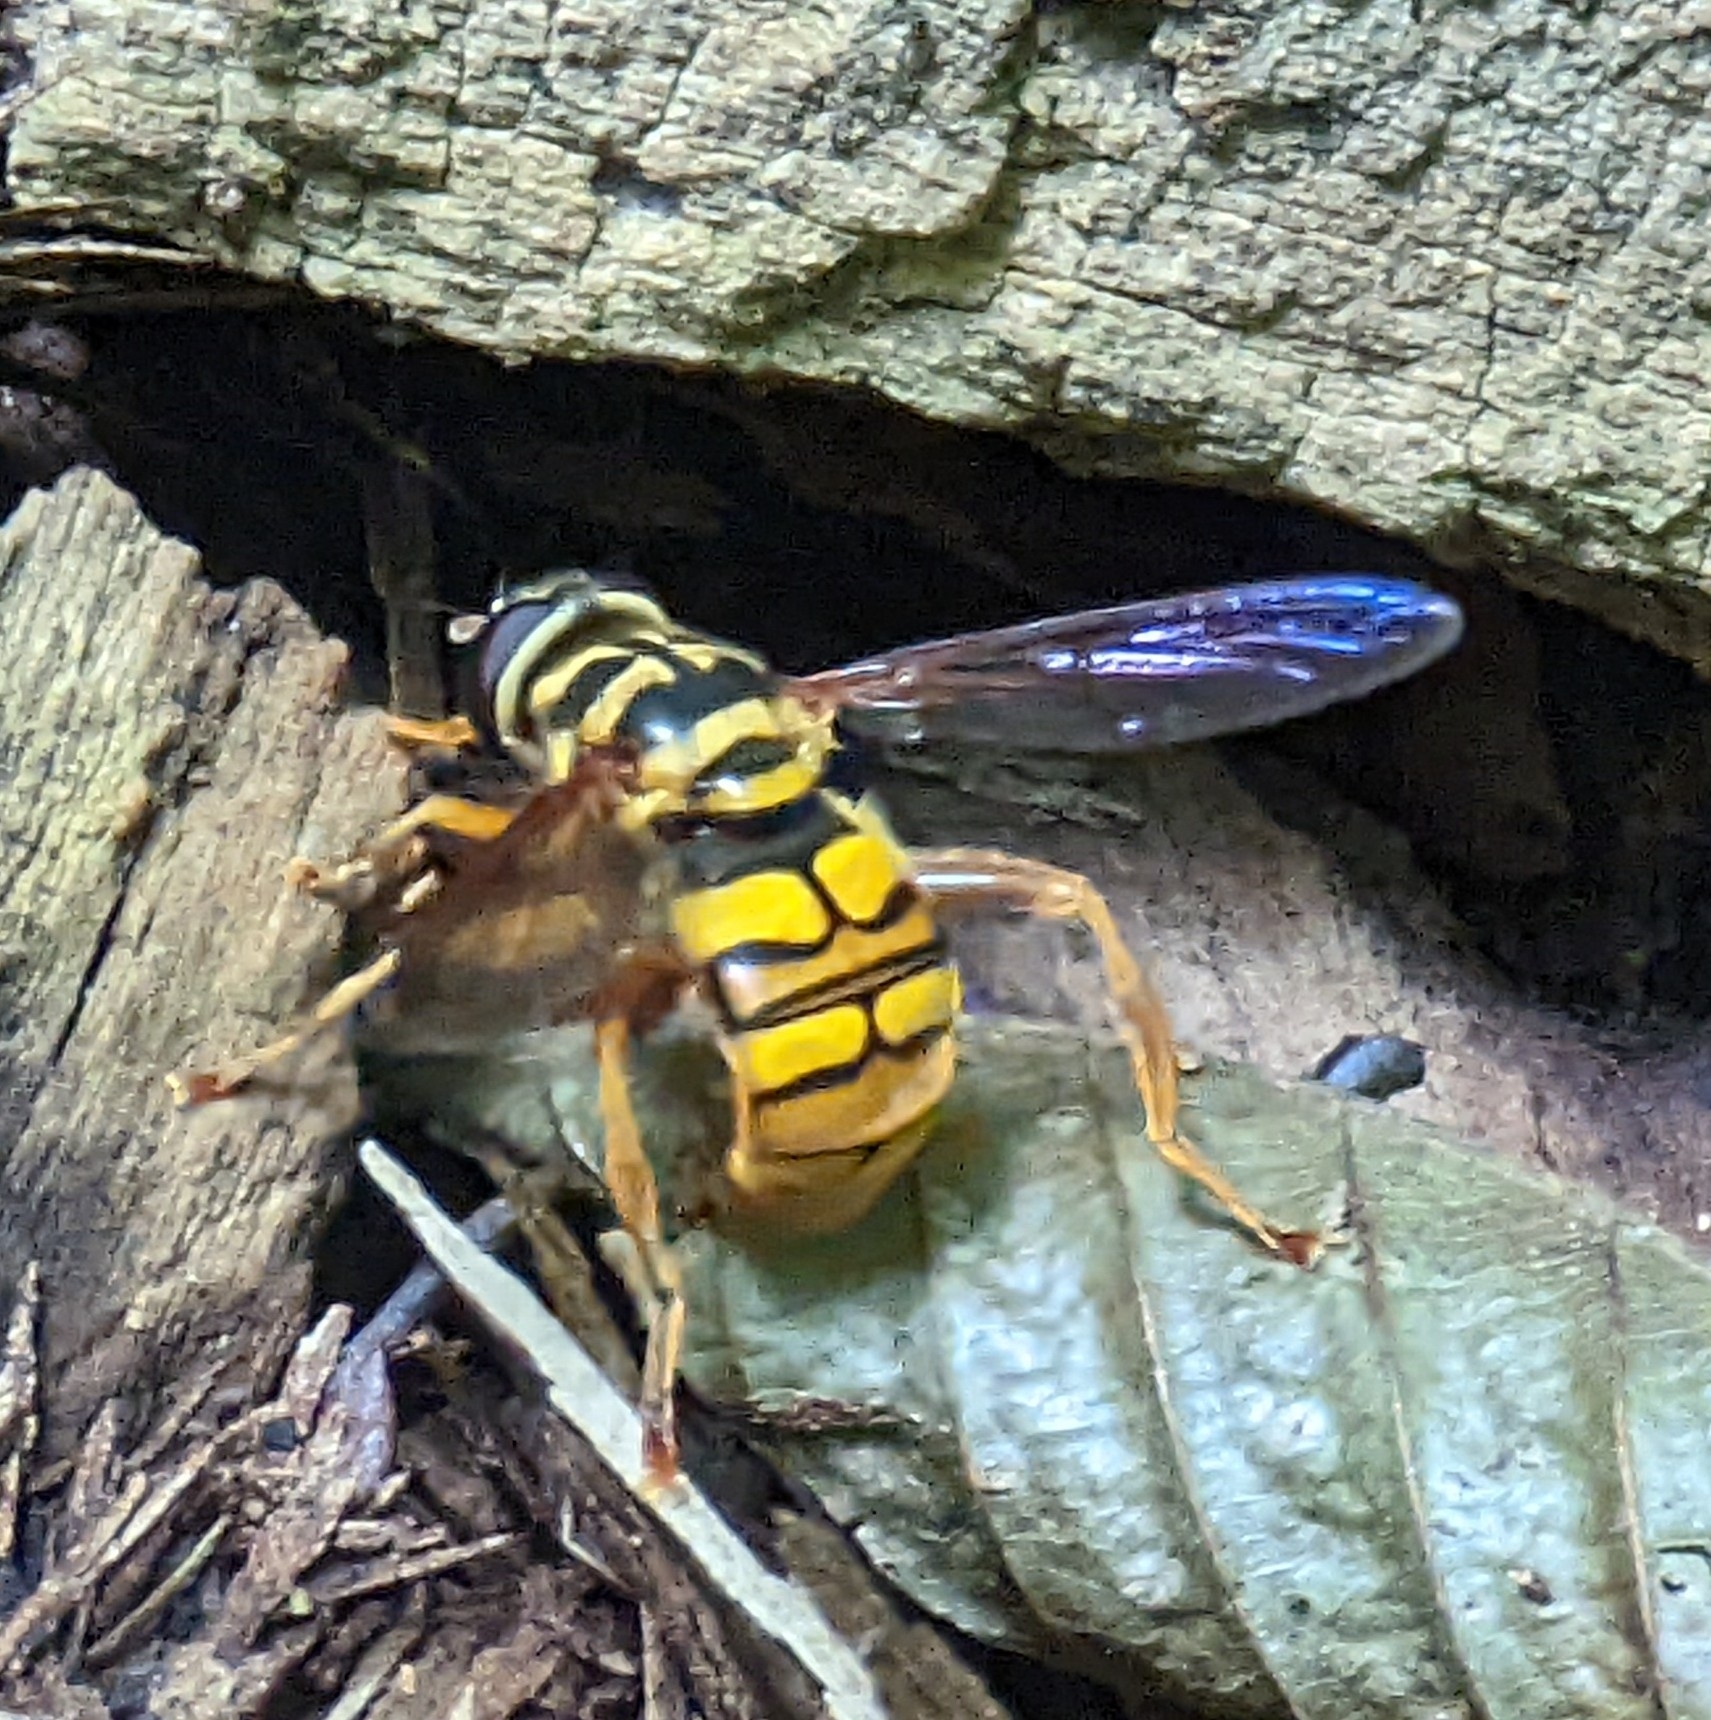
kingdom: Animalia
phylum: Arthropoda
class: Insecta
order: Diptera
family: Syrphidae
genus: Milesia
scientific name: Milesia virginiensis
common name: Virginia giant
